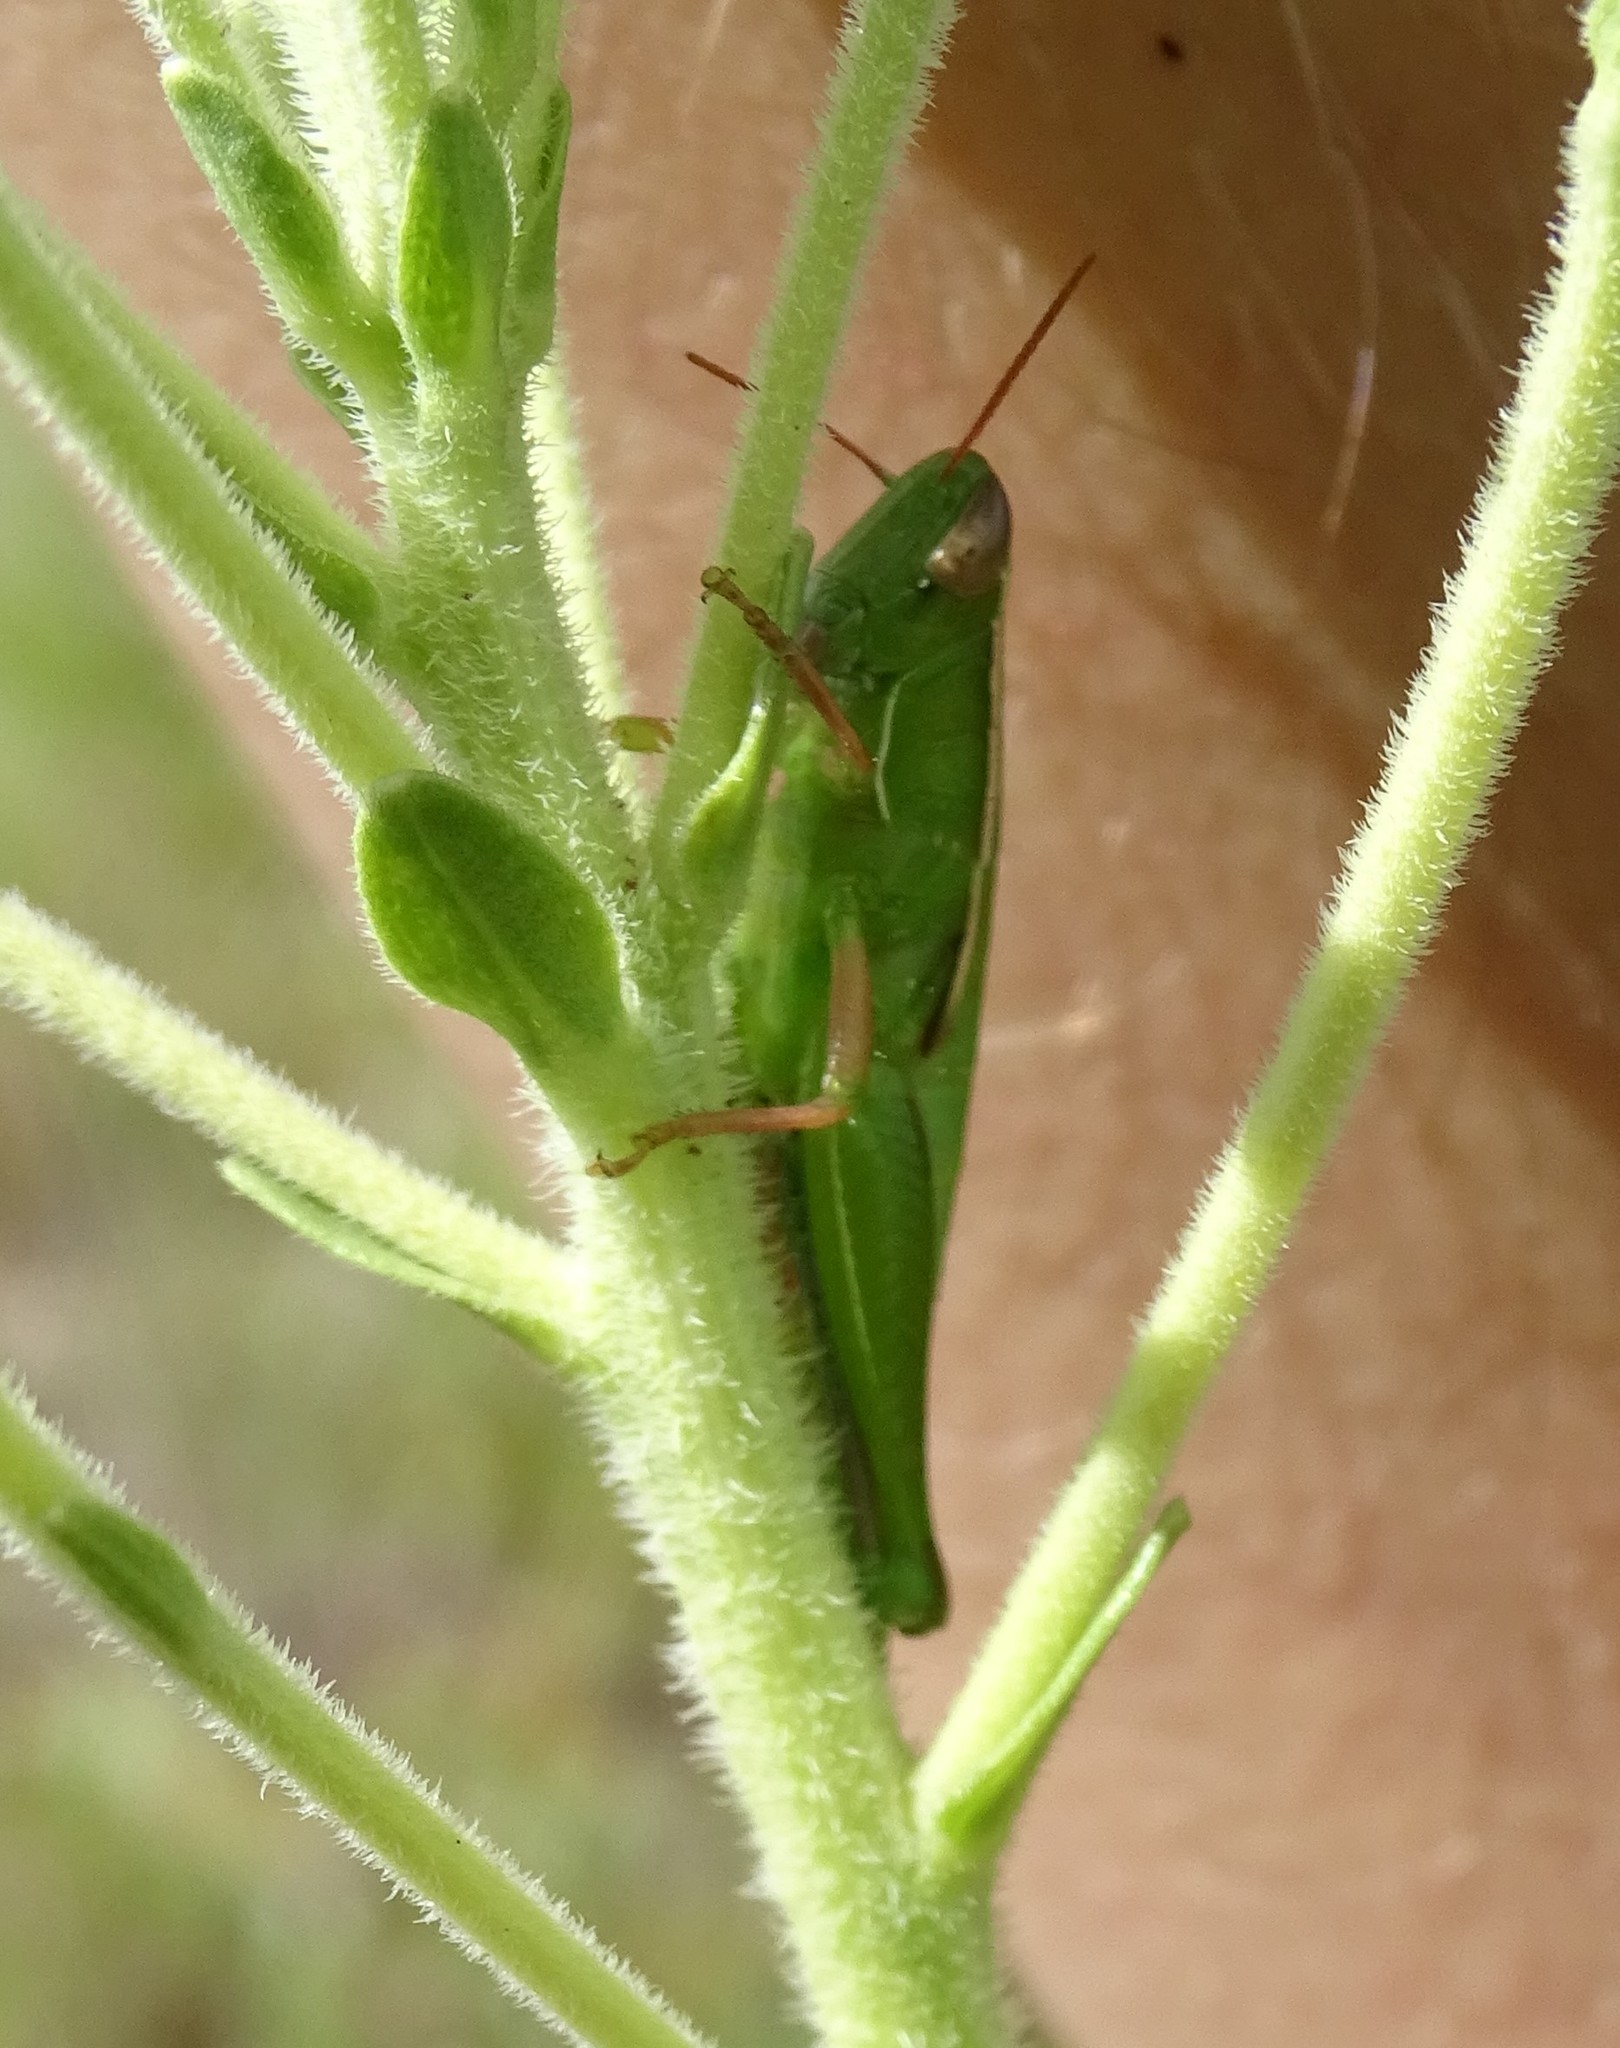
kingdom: Animalia
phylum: Arthropoda
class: Insecta
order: Orthoptera
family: Acrididae
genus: Aptenopedes
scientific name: Aptenopedes sphenarioides
